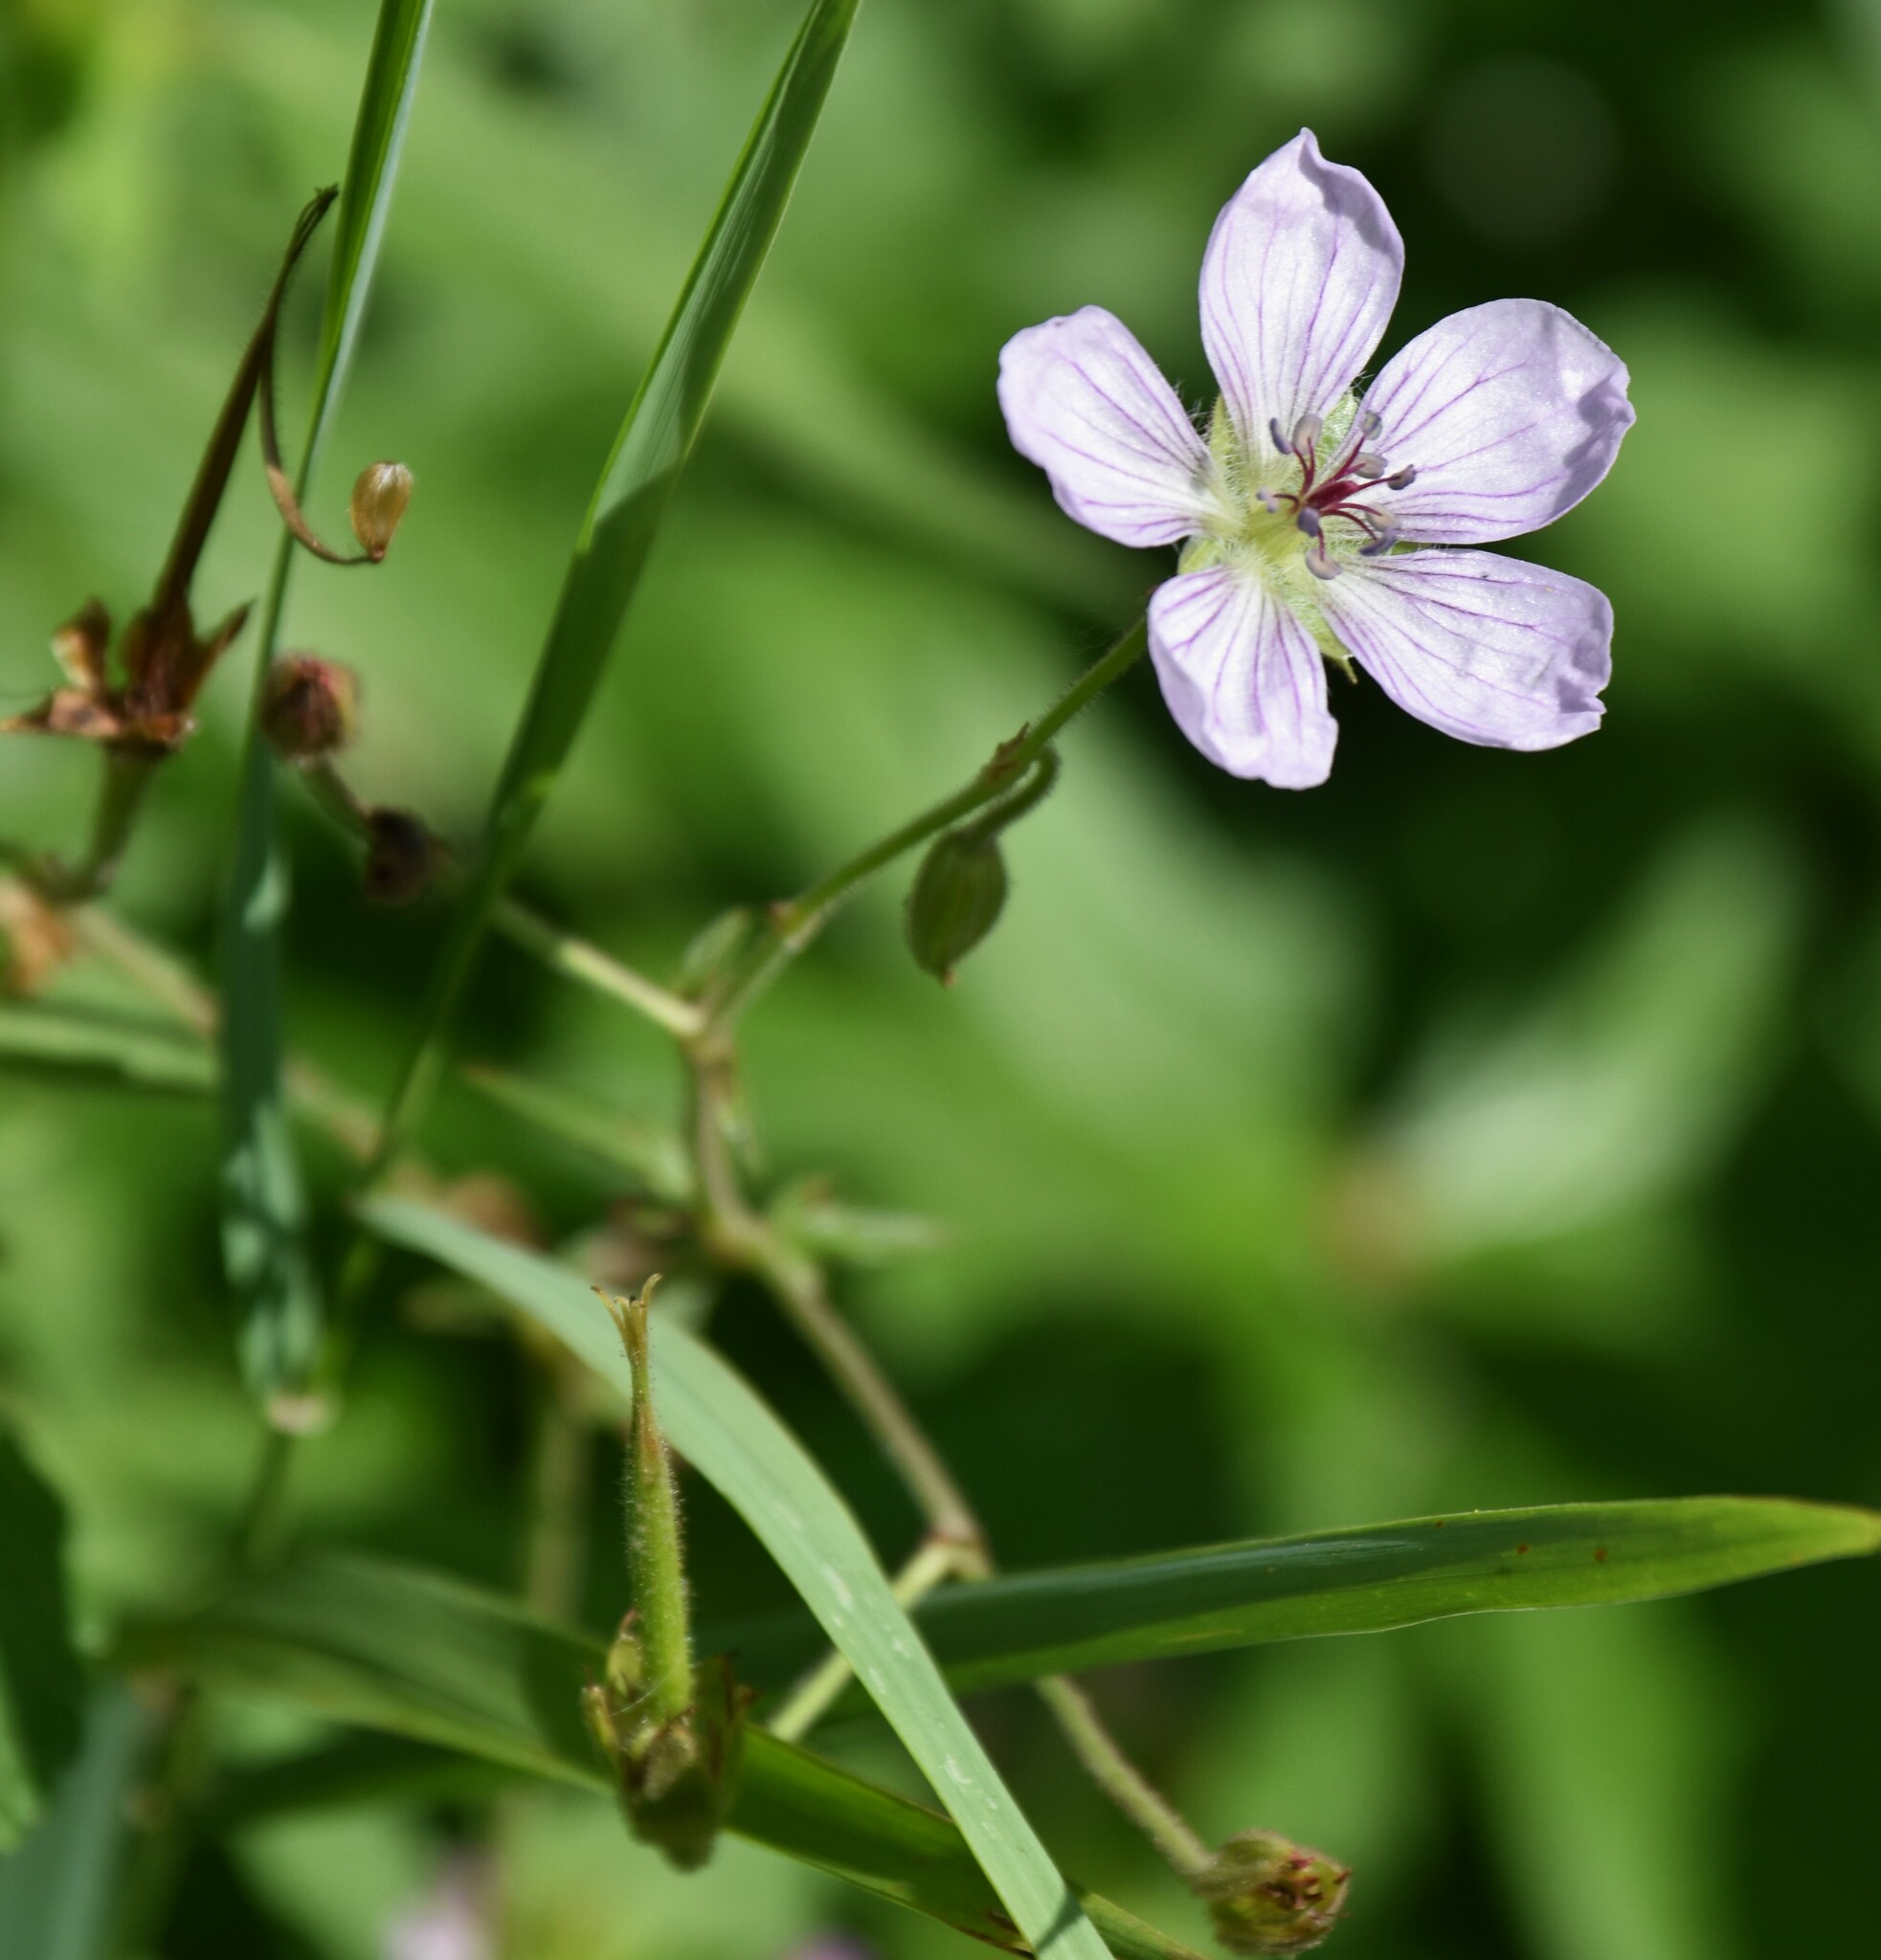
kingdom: Plantae
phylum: Tracheophyta
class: Magnoliopsida
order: Geraniales
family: Geraniaceae
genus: Geranium
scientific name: Geranium richardsonii
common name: Richardson's crane's-bill
